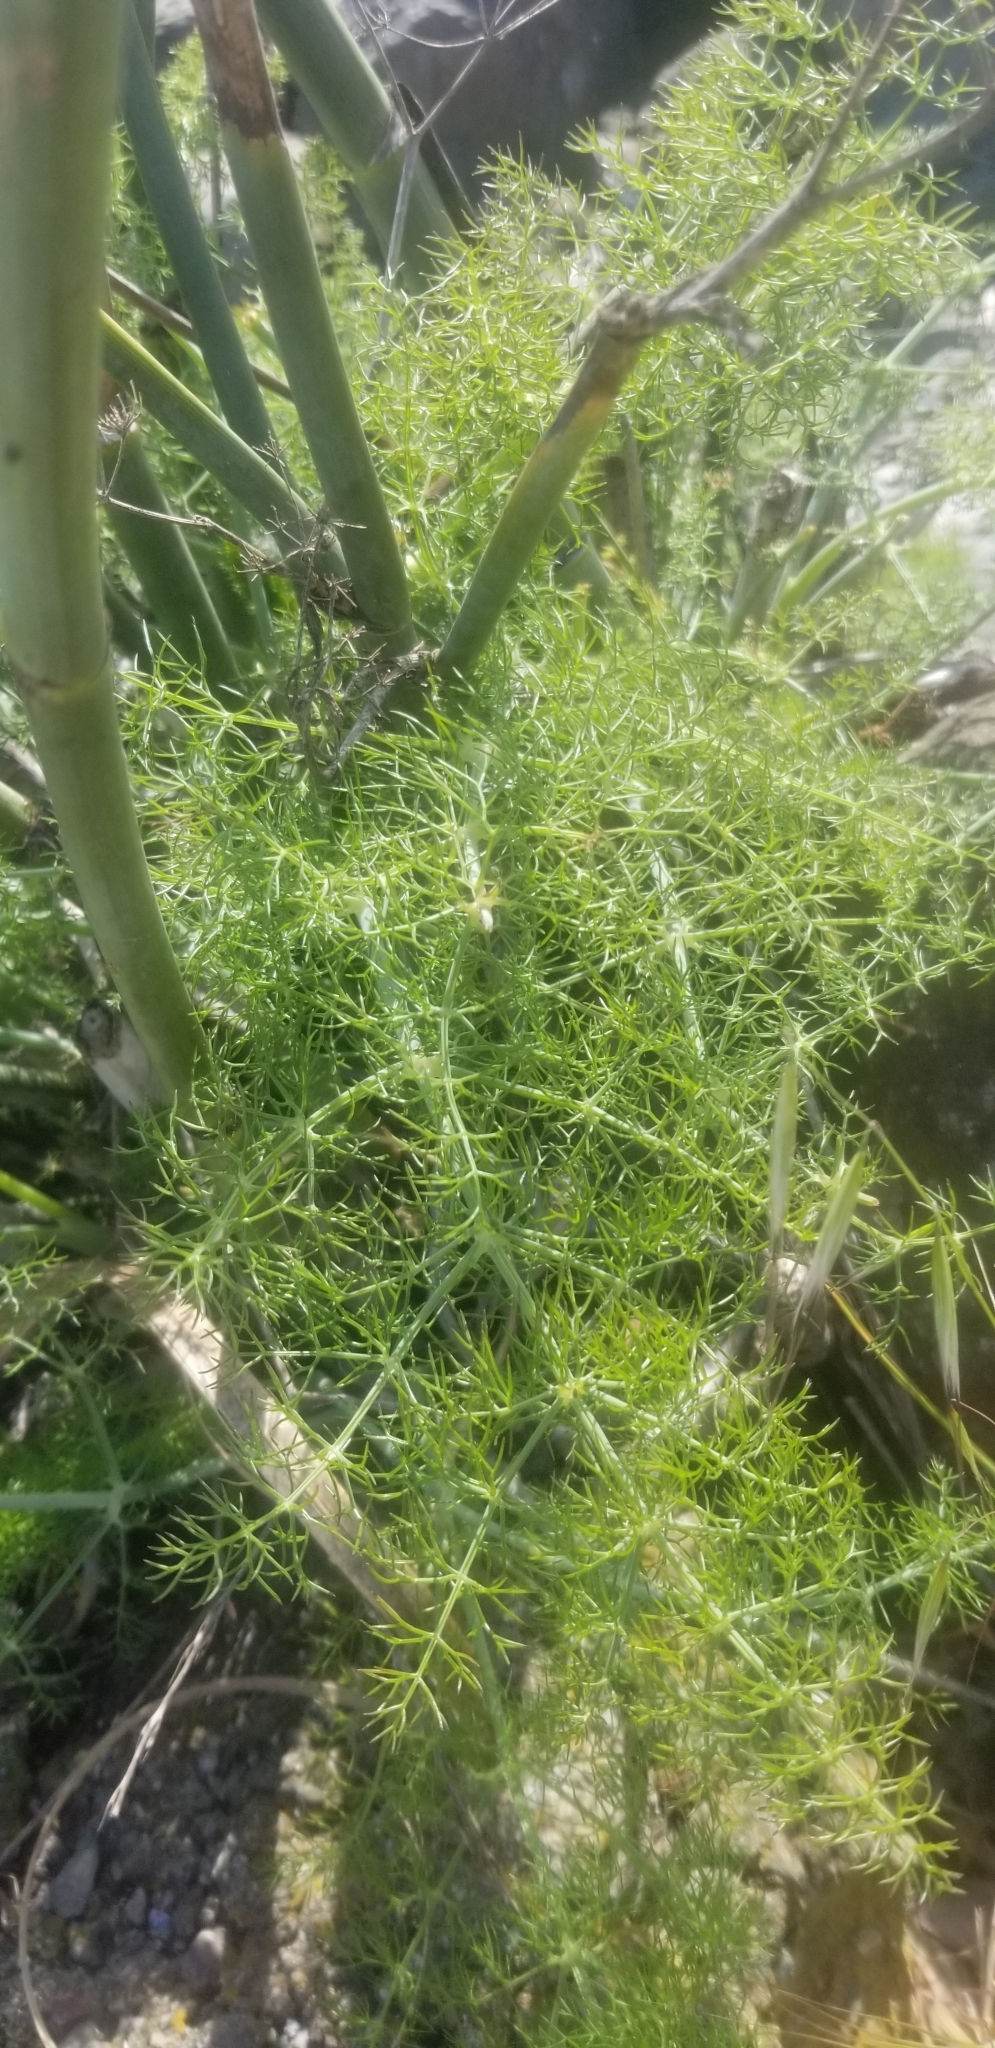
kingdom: Plantae
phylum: Tracheophyta
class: Magnoliopsida
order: Apiales
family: Apiaceae
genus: Foeniculum
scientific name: Foeniculum vulgare
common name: Fennel
